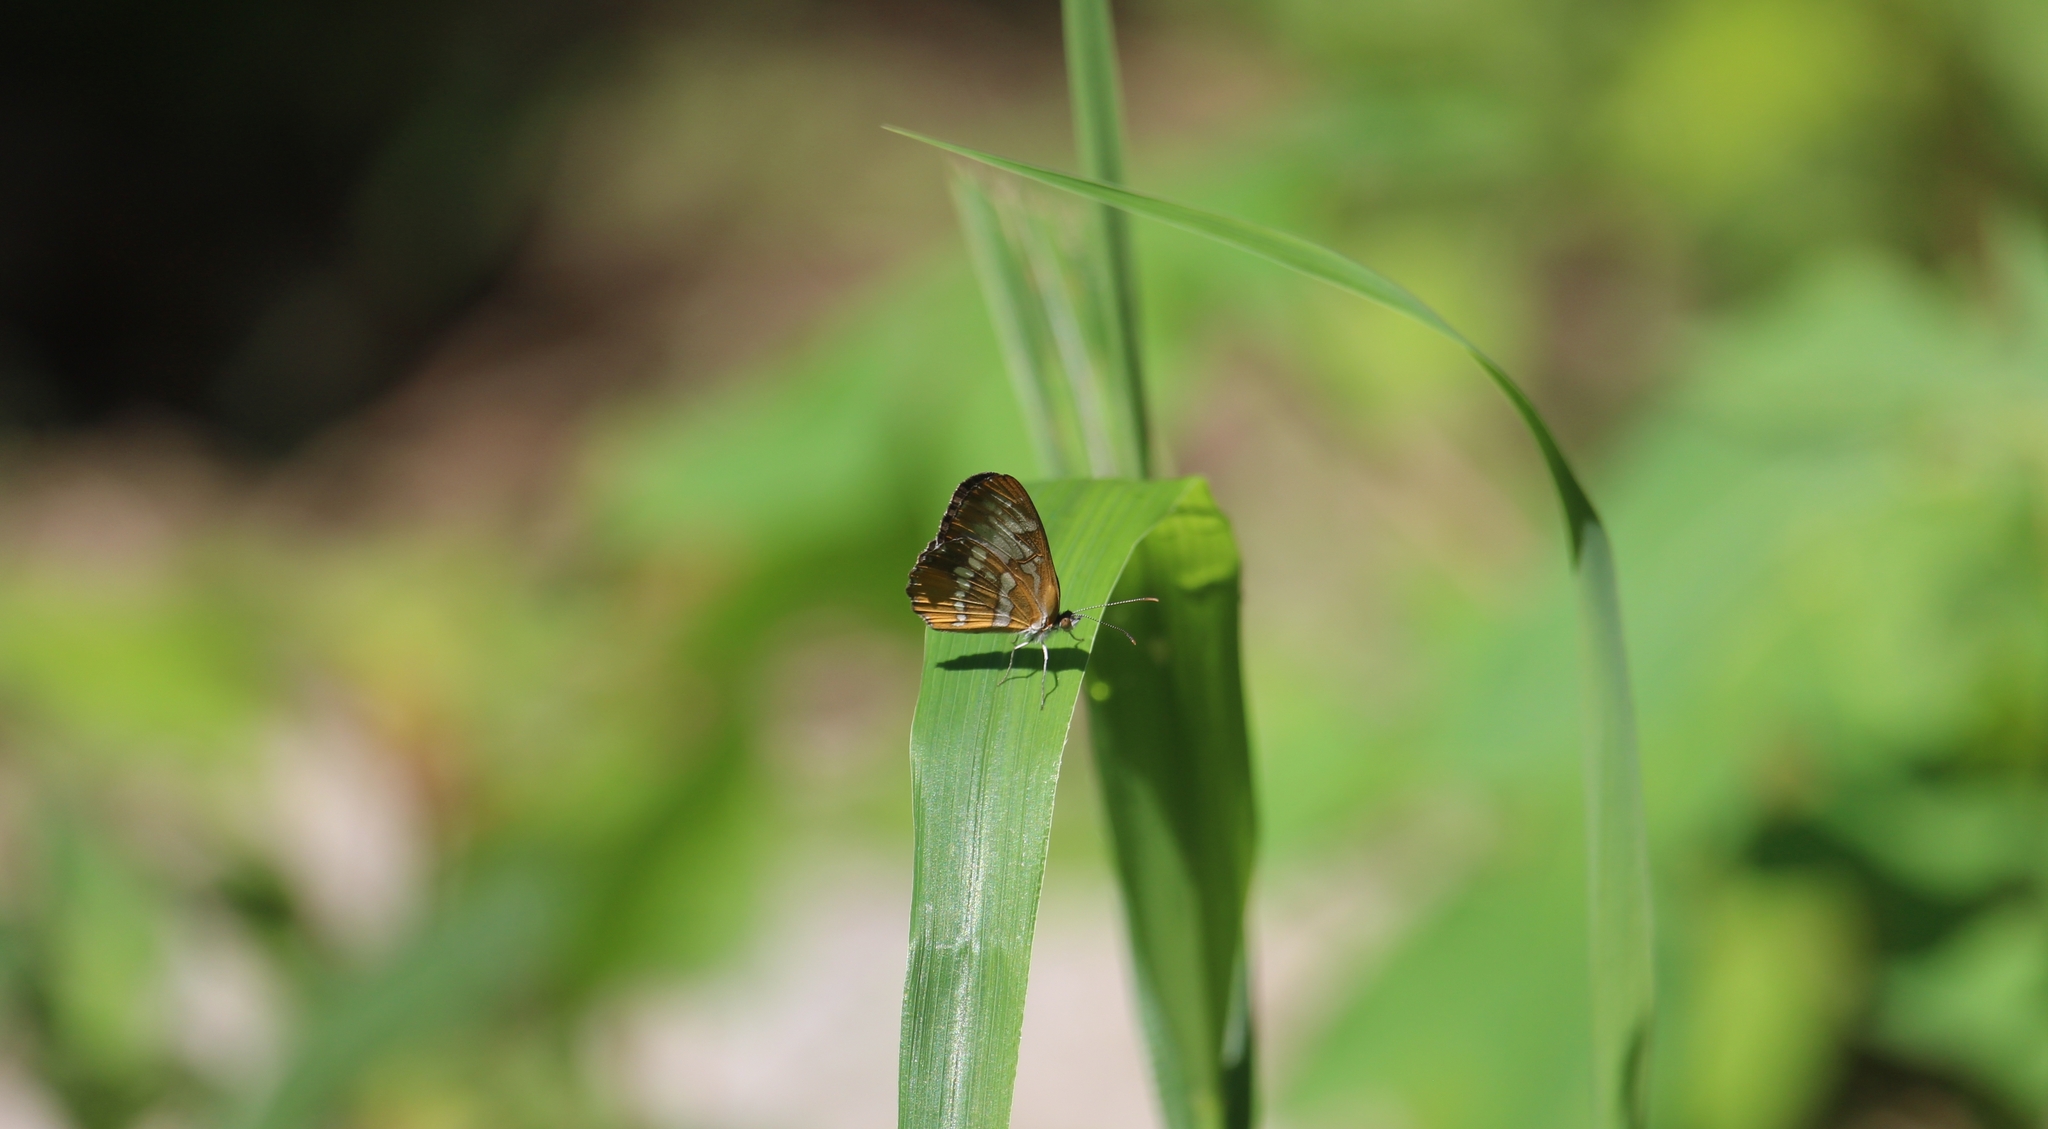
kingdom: Animalia
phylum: Arthropoda
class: Insecta
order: Lepidoptera
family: Nymphalidae
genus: Mestra
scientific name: Mestra amymone
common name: Common mestra
